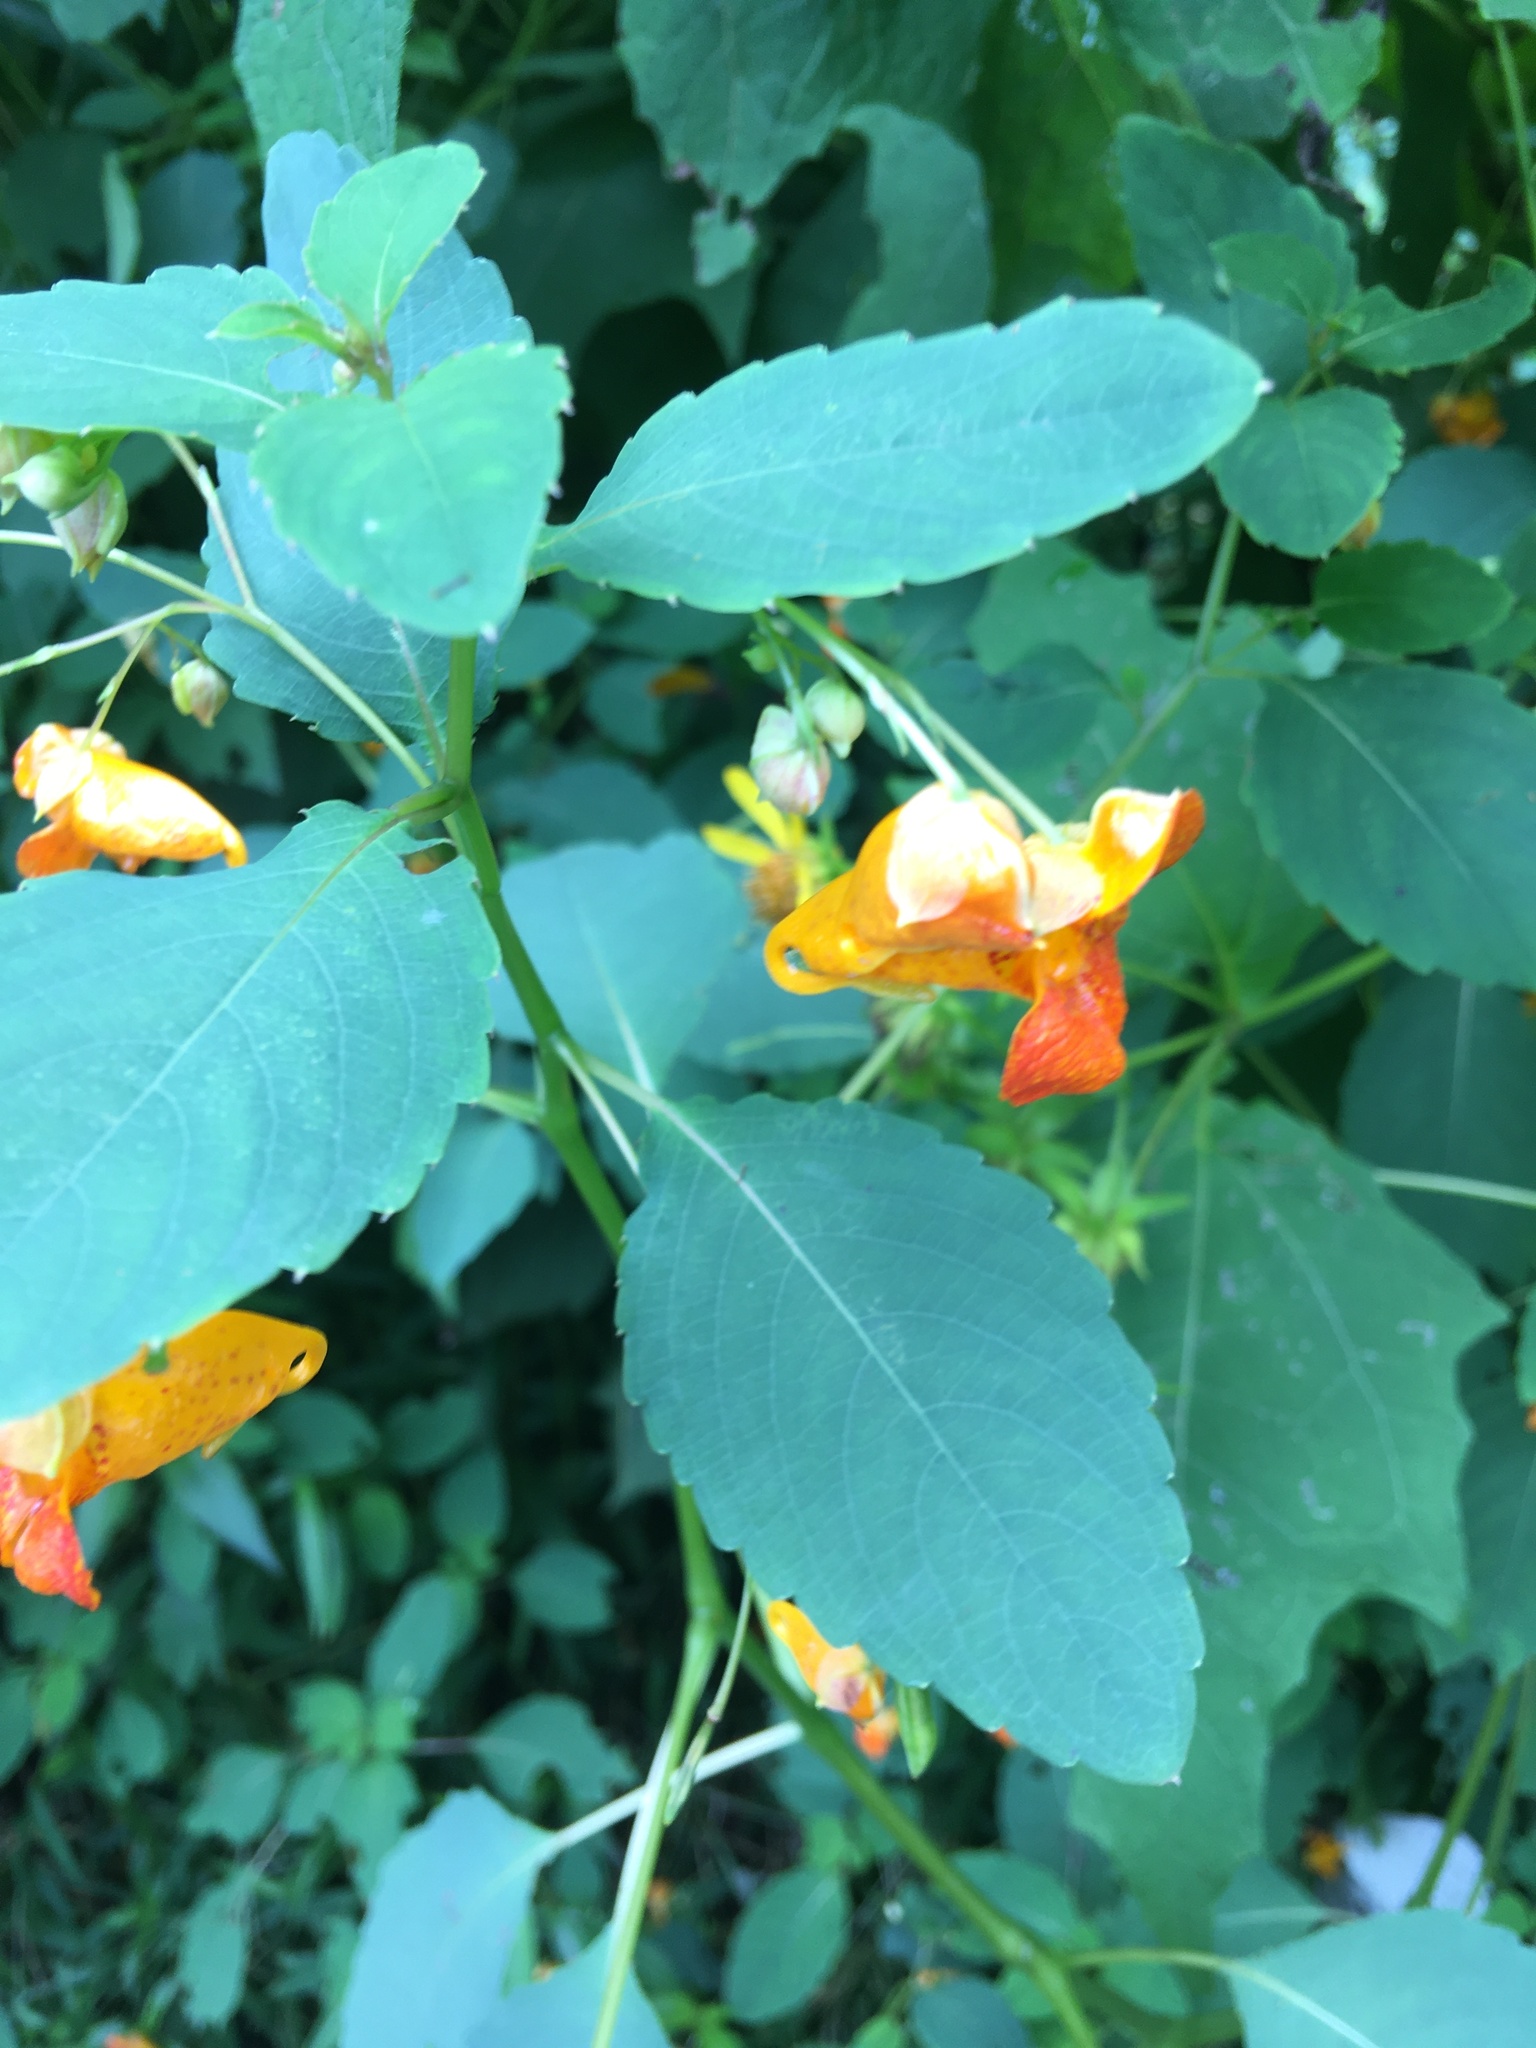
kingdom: Plantae
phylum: Tracheophyta
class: Magnoliopsida
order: Ericales
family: Balsaminaceae
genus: Impatiens
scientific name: Impatiens capensis
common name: Orange balsam
